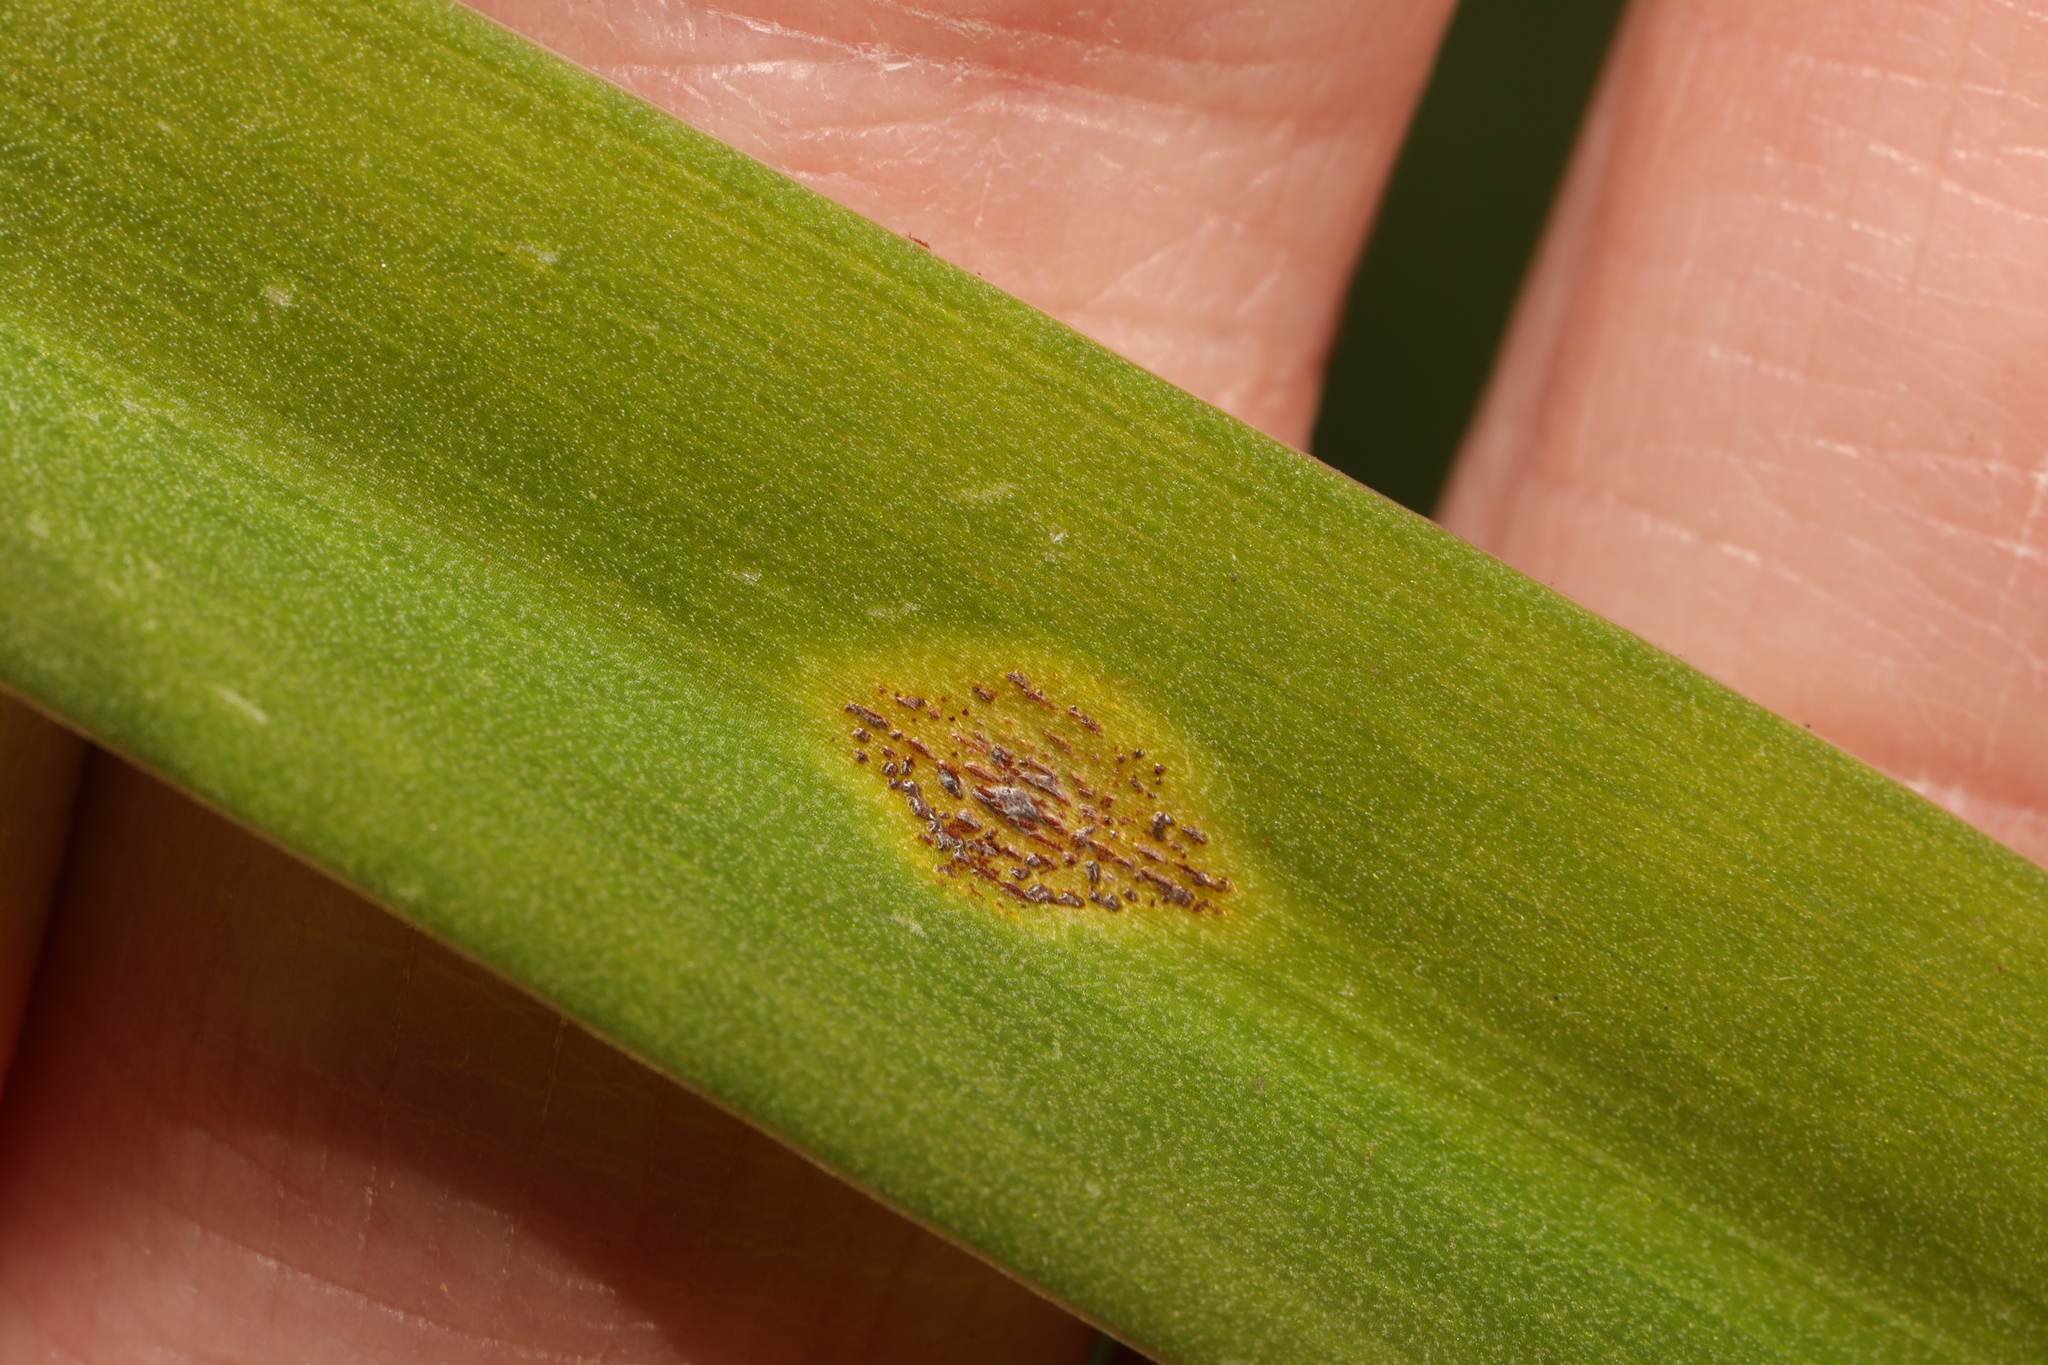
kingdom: Fungi
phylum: Basidiomycota
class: Pucciniomycetes
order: Pucciniales
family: Pucciniaceae
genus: Uromyces
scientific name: Uromyces hyacinthi
